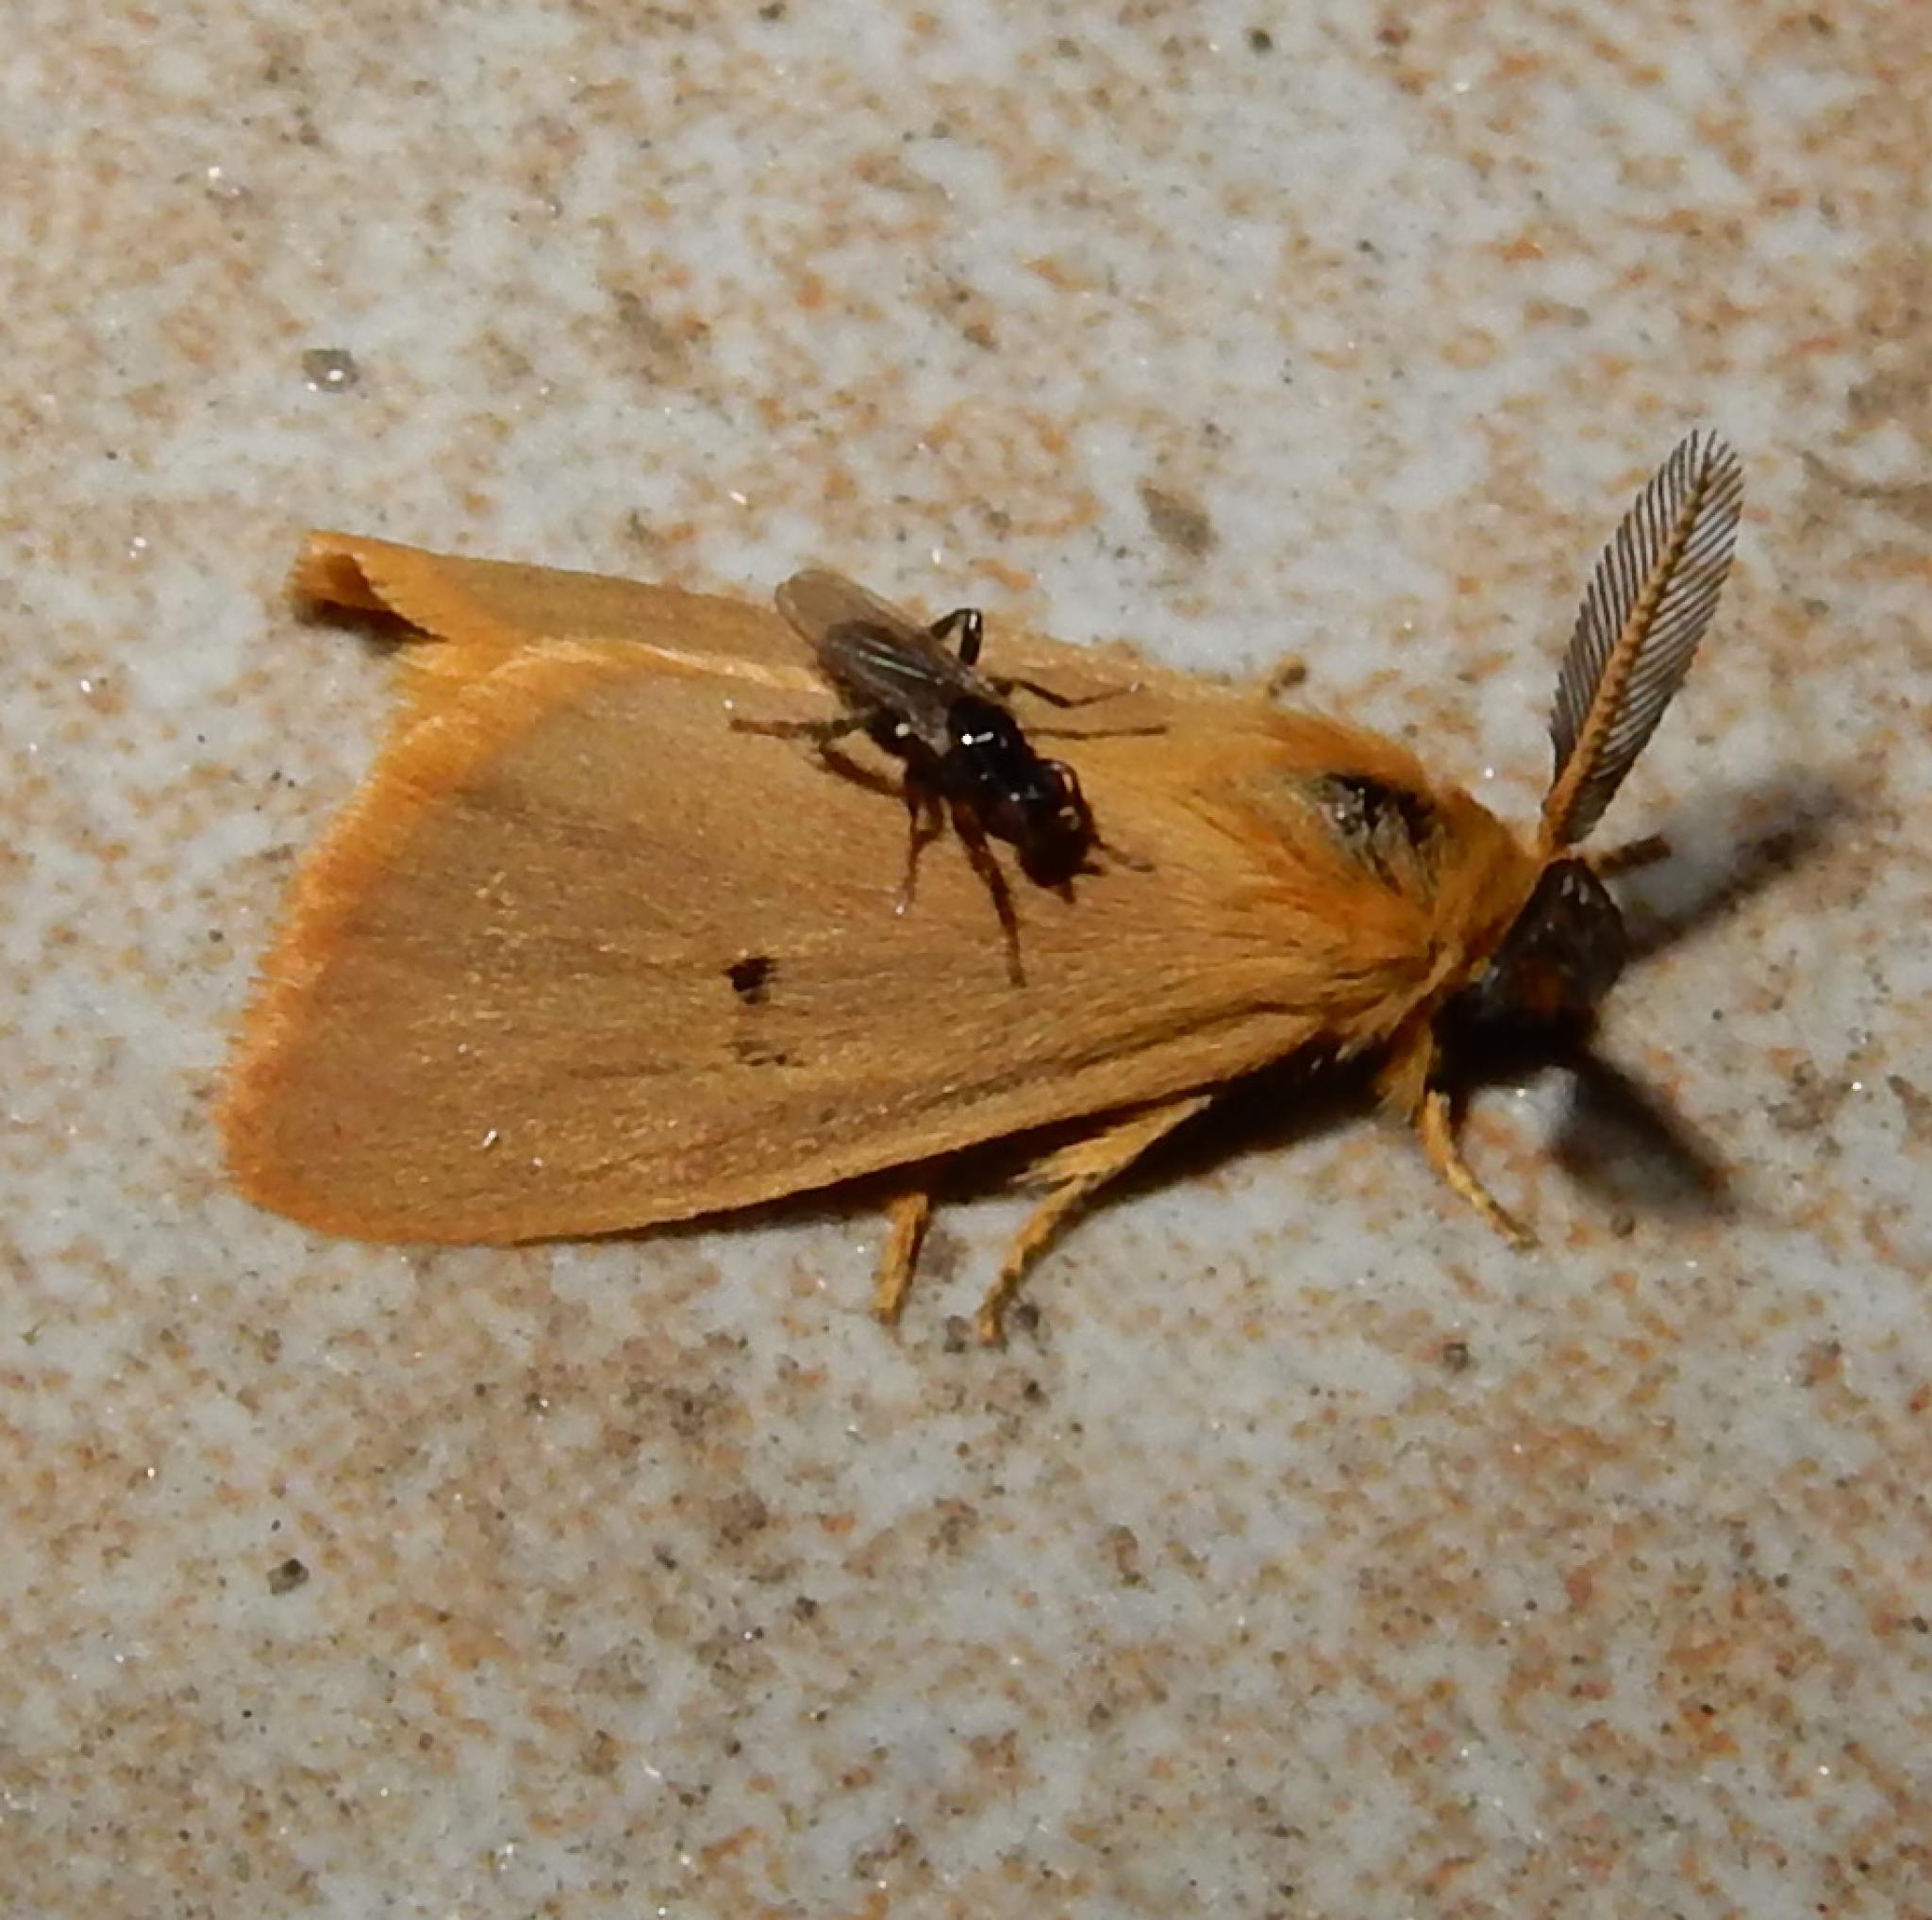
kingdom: Animalia
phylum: Arthropoda
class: Insecta
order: Lepidoptera
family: Erebidae
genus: Bracharoa
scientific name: Bracharoa dregei
